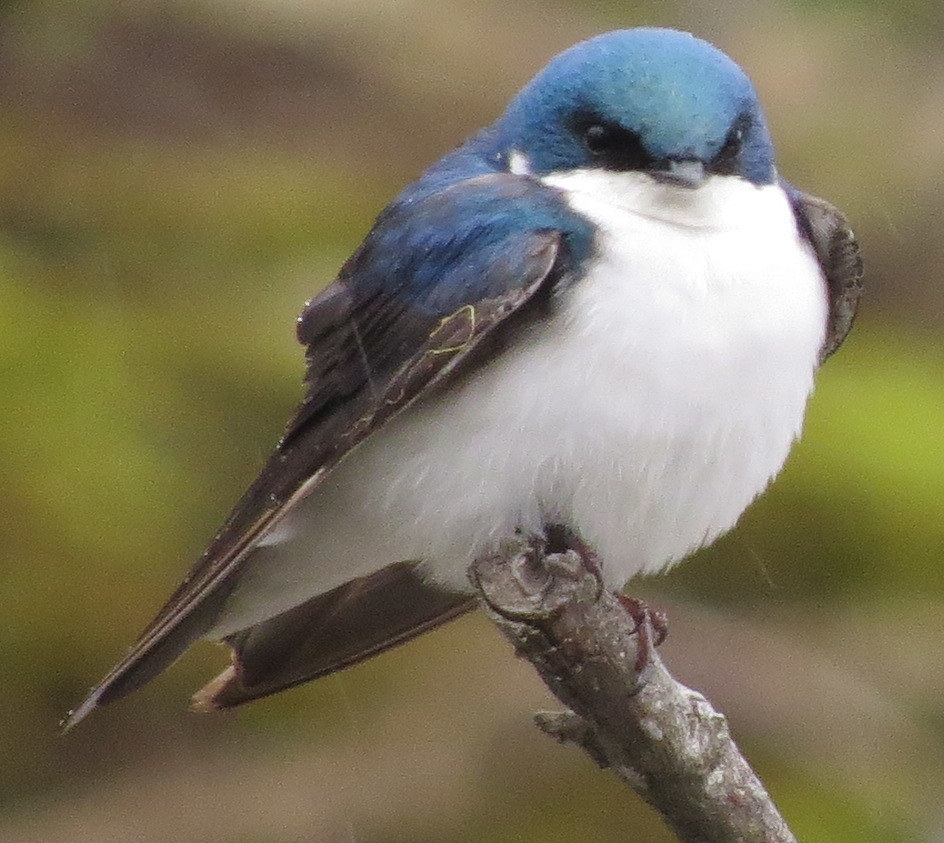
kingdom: Animalia
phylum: Chordata
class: Aves
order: Passeriformes
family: Hirundinidae
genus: Tachycineta
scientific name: Tachycineta bicolor
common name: Tree swallow
